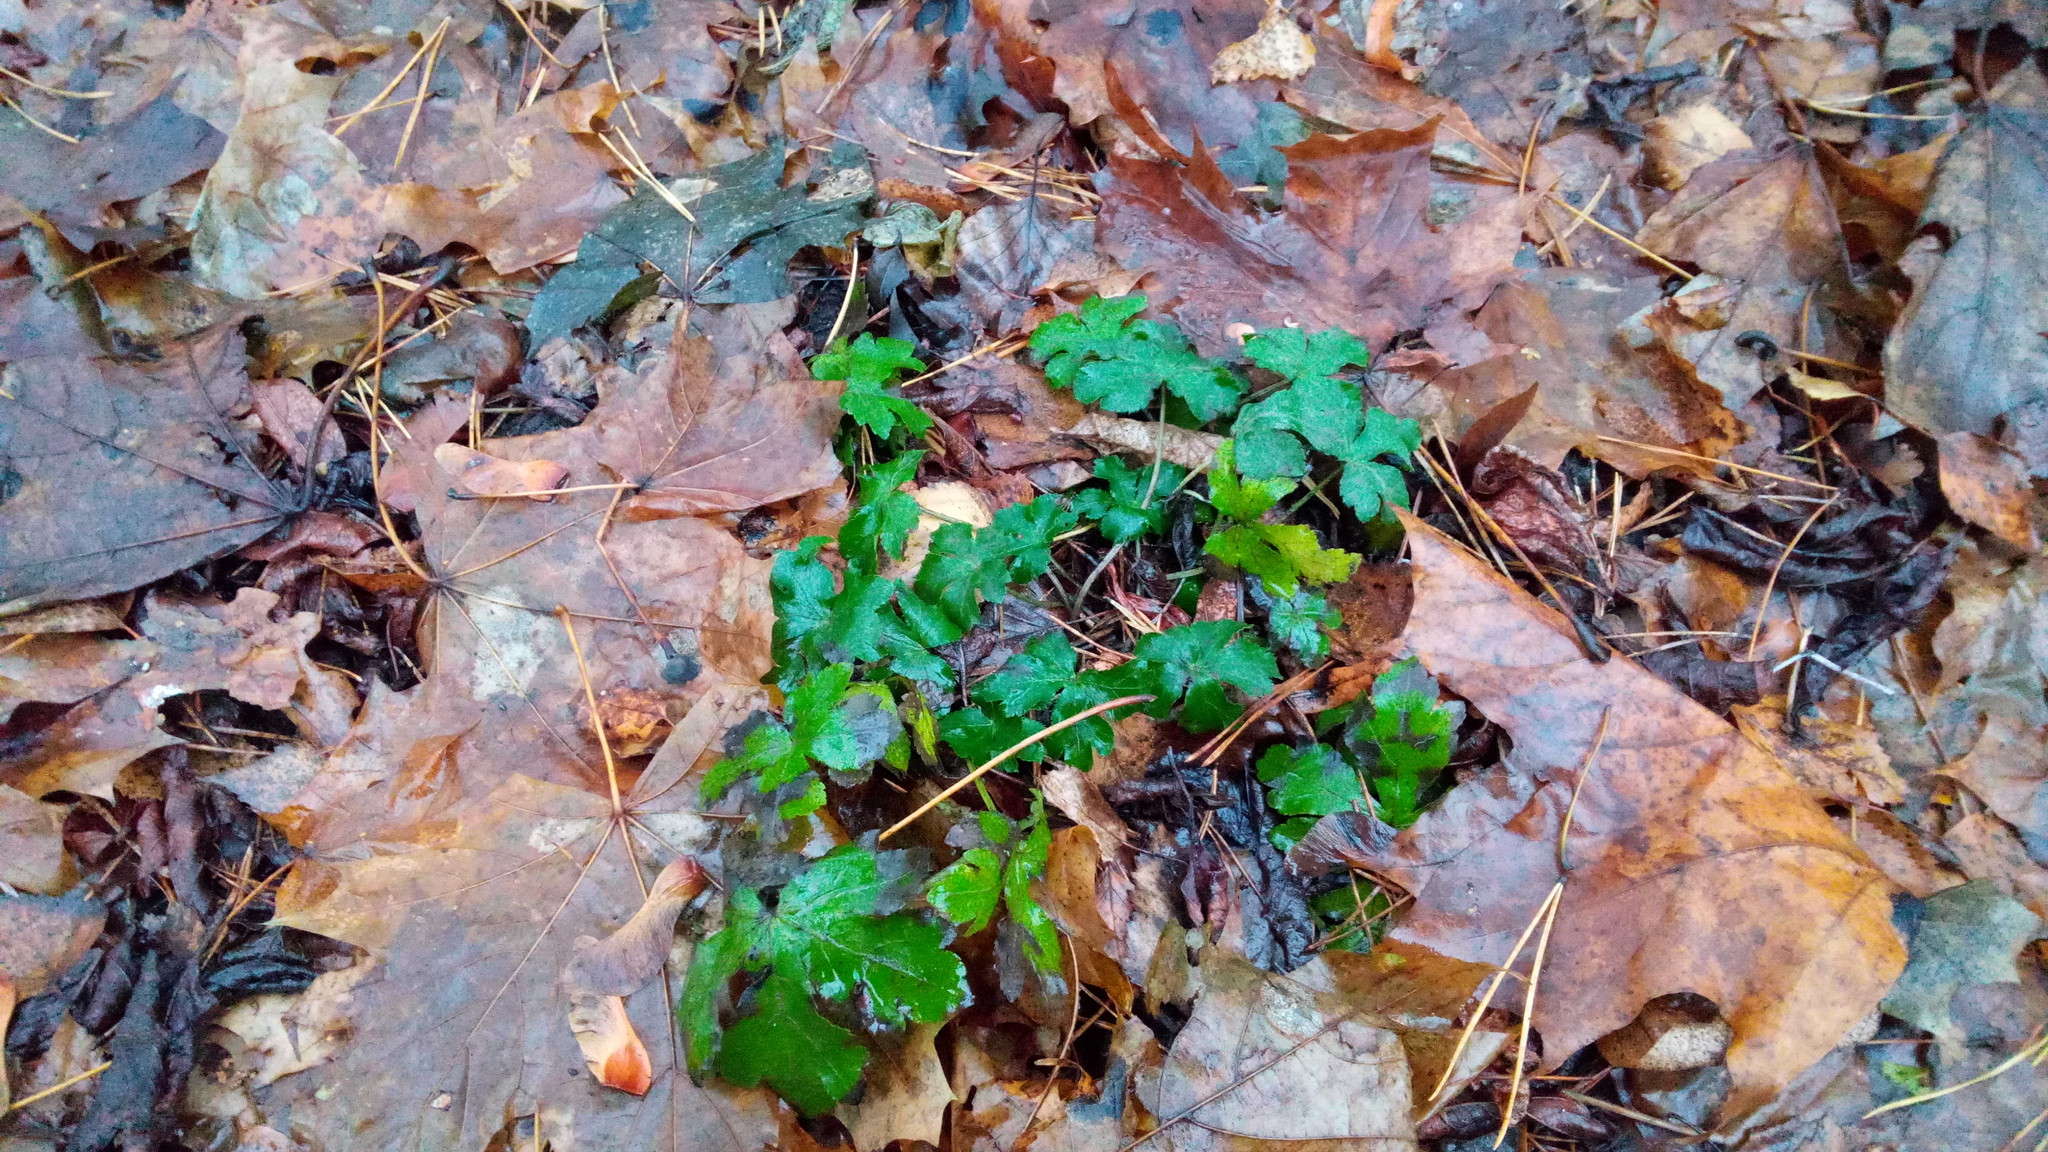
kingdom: Plantae
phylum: Tracheophyta
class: Magnoliopsida
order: Apiales
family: Apiaceae
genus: Sanicula
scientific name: Sanicula europaea
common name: Sanicle
